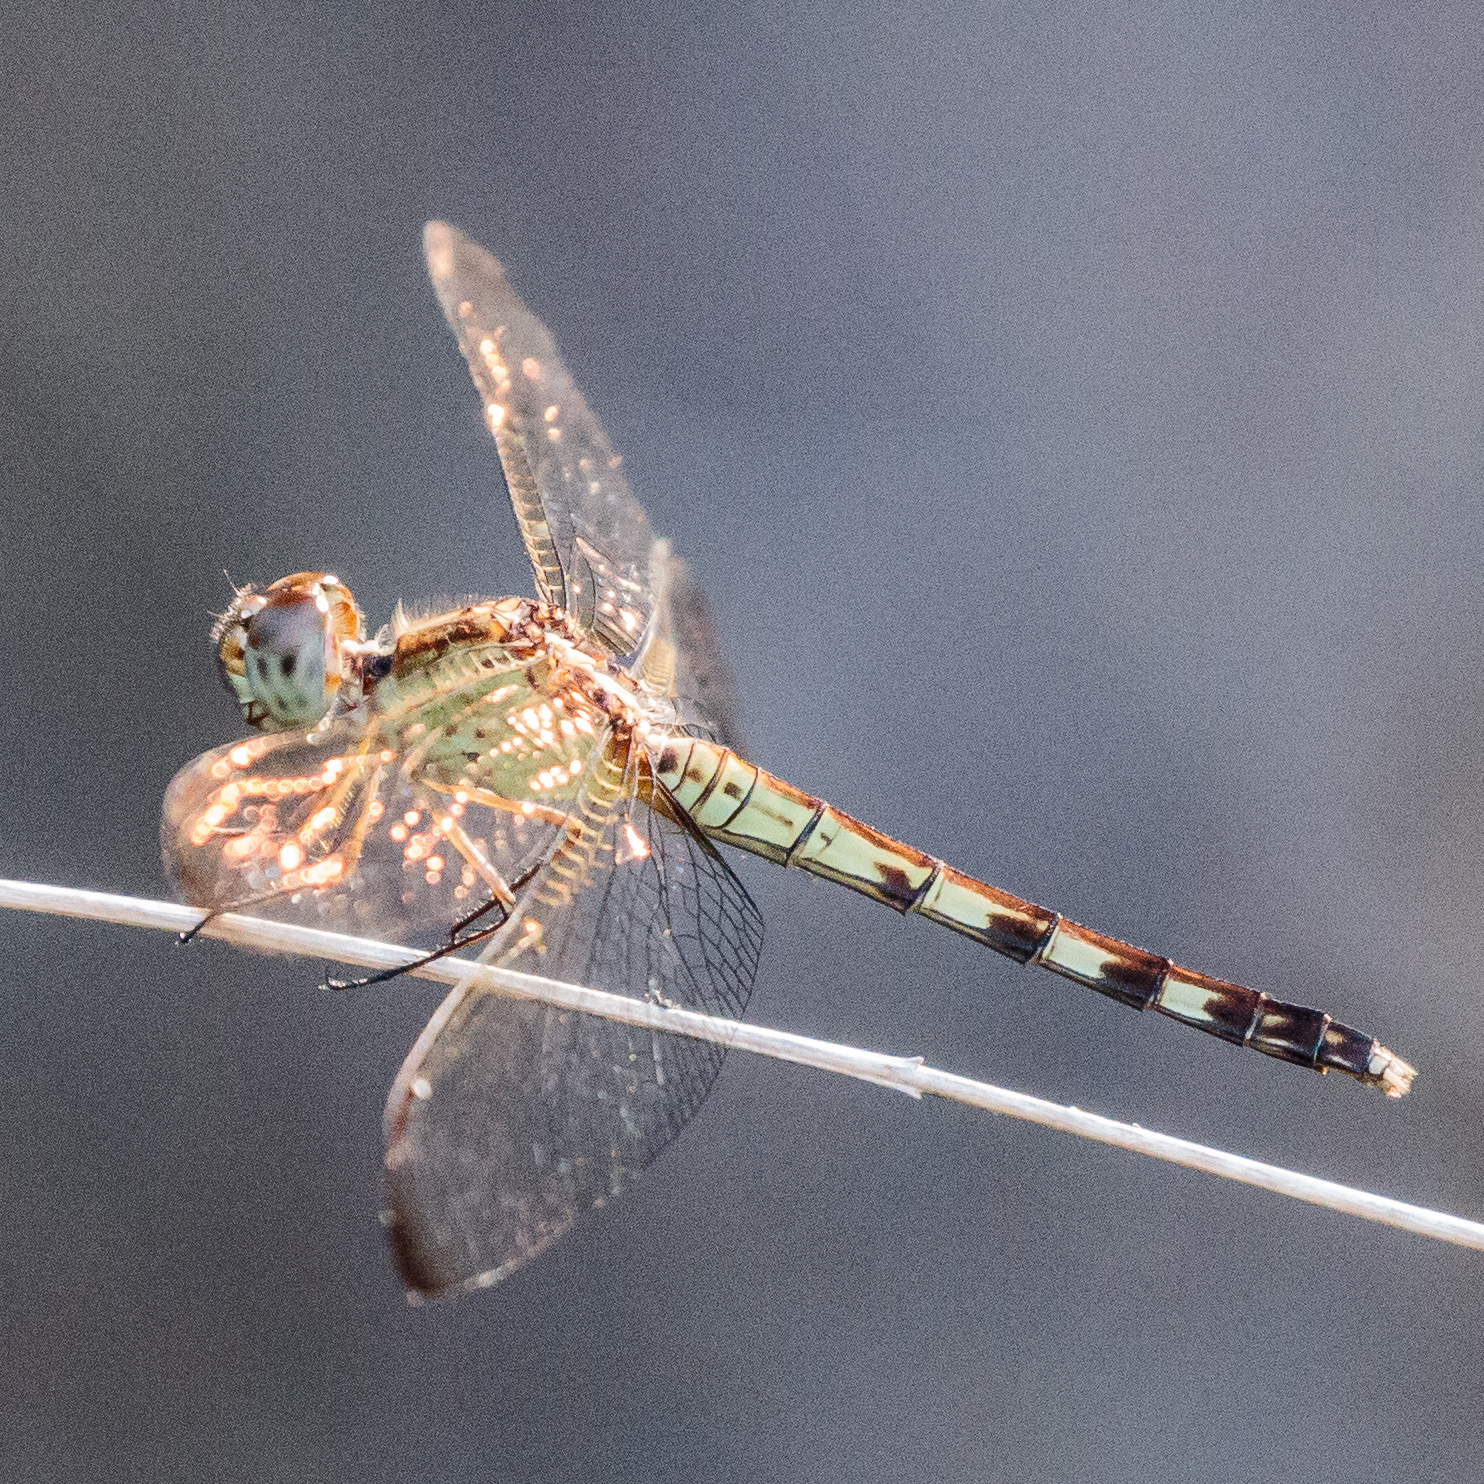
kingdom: Animalia
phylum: Arthropoda
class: Insecta
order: Odonata
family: Libellulidae
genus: Erythrodiplax
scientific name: Erythrodiplax umbrata
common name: Band-winged dragonlet
